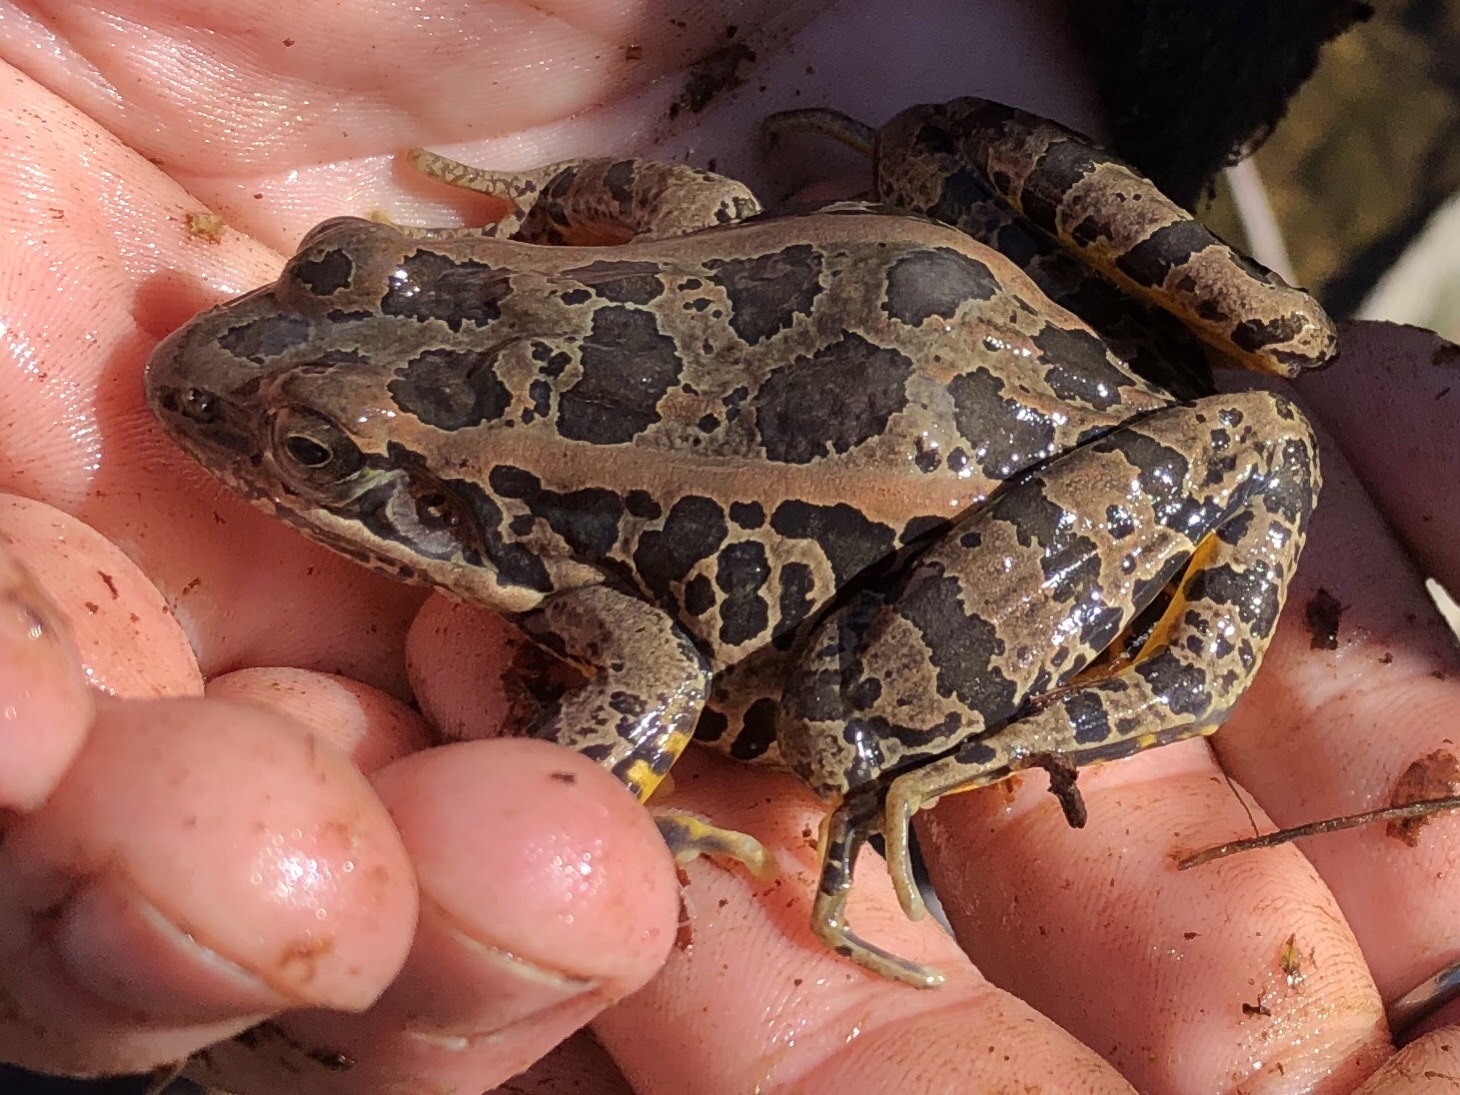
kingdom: Animalia
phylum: Chordata
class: Amphibia
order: Anura
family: Ranidae
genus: Lithobates
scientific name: Lithobates palustris
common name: Pickerel frog
